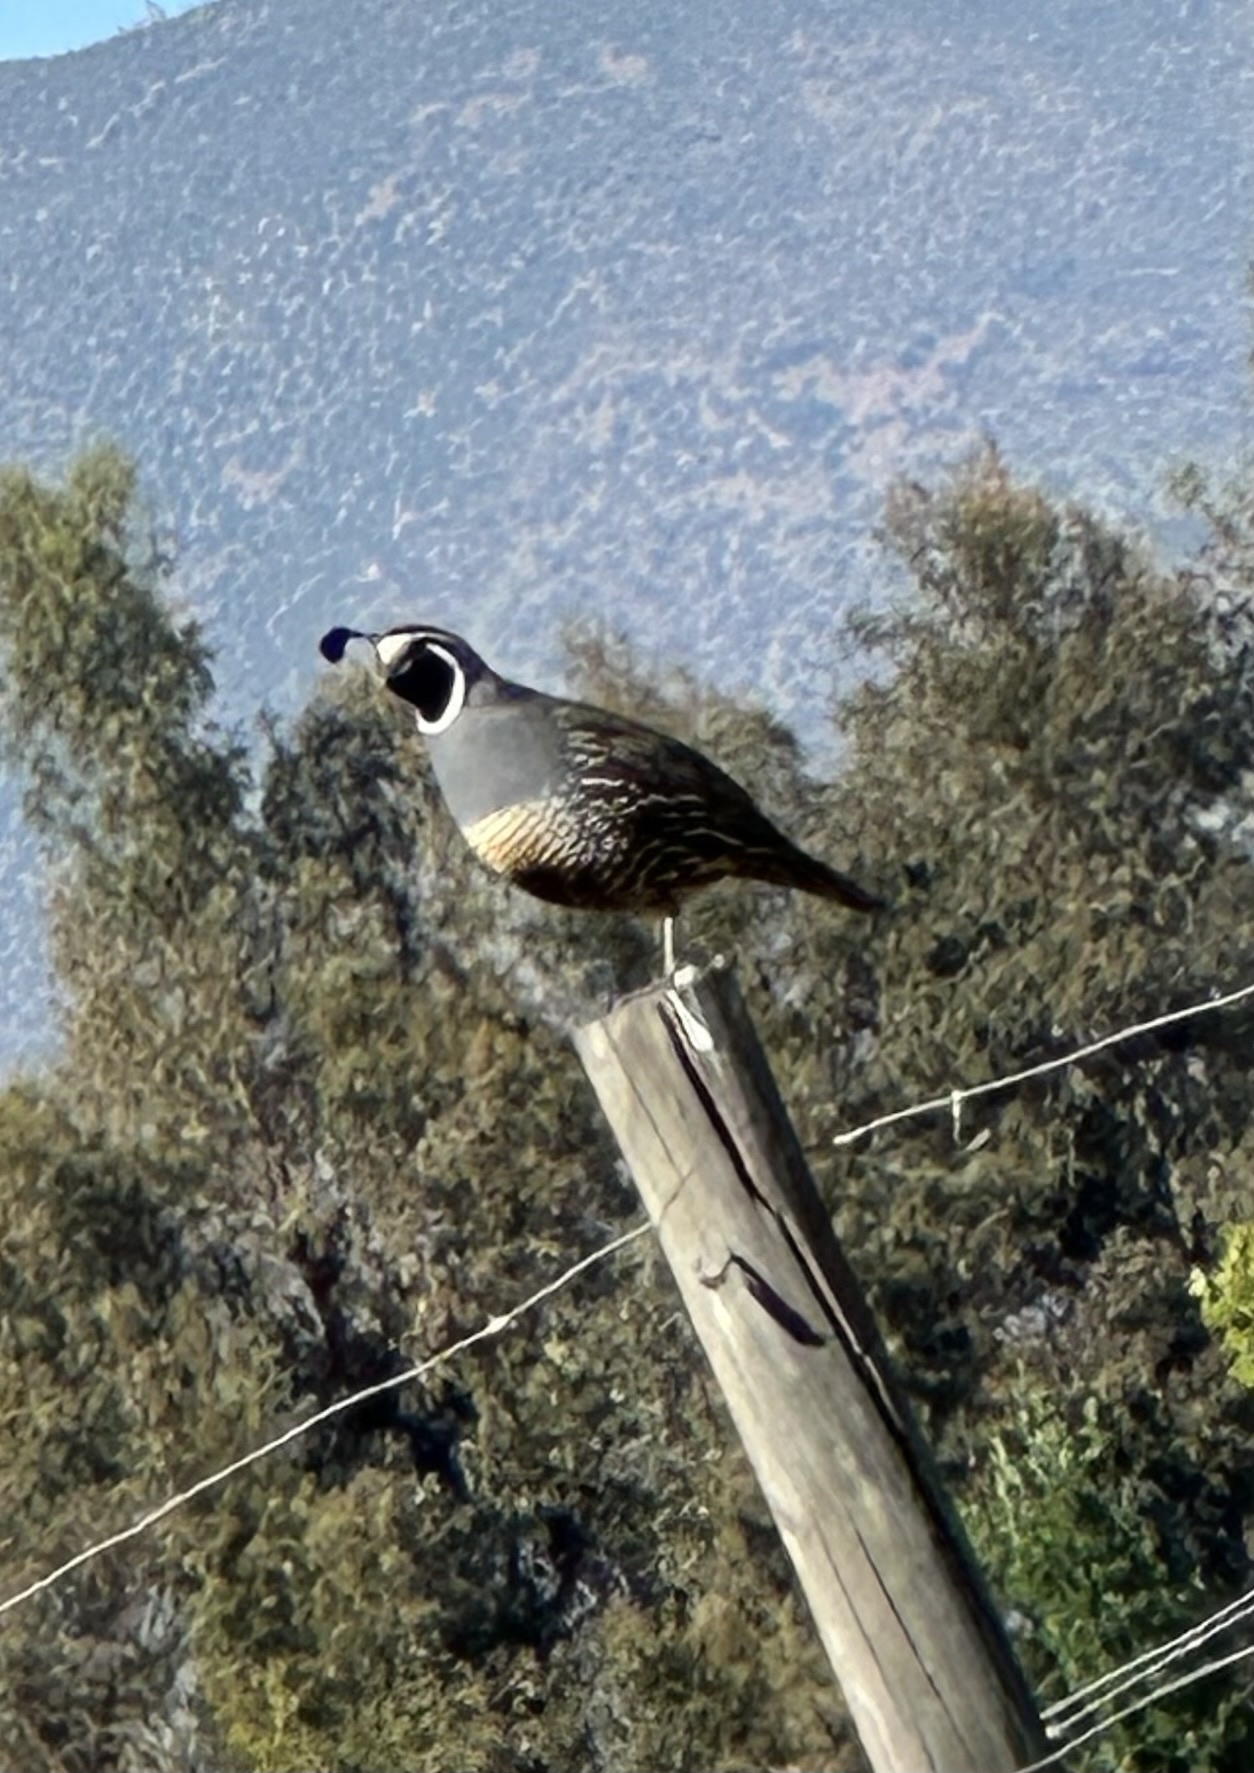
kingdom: Animalia
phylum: Chordata
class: Aves
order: Galliformes
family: Odontophoridae
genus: Callipepla
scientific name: Callipepla californica
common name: California quail
